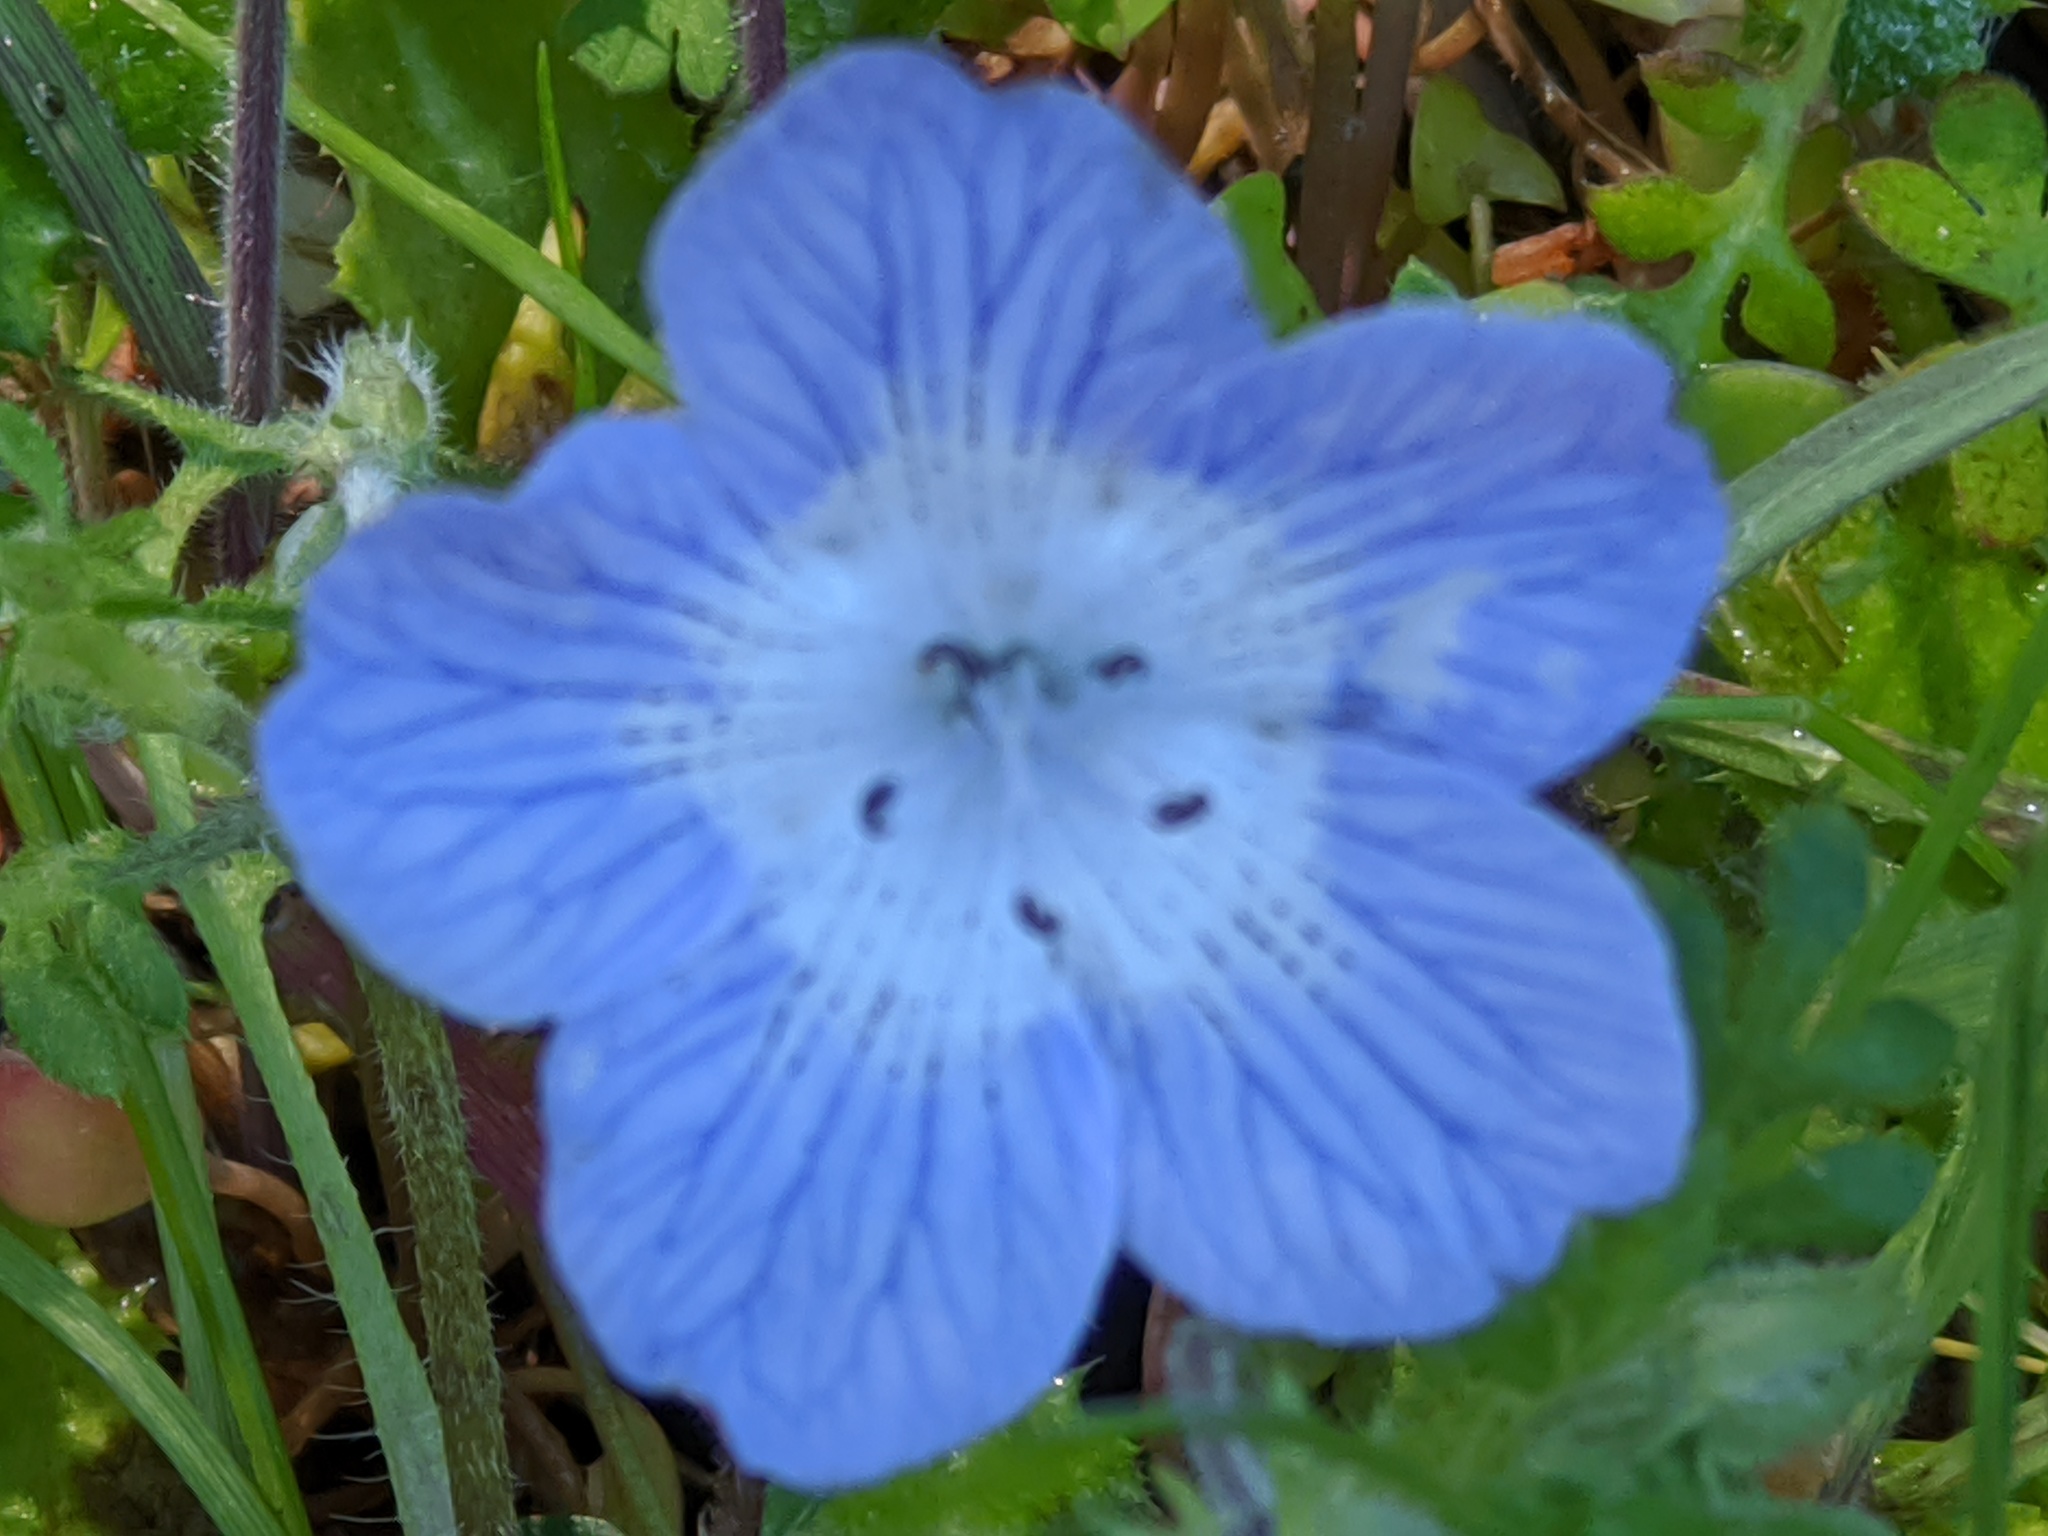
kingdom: Plantae
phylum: Tracheophyta
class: Magnoliopsida
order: Boraginales
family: Hydrophyllaceae
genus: Nemophila
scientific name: Nemophila menziesii
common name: Baby's-blue-eyes
